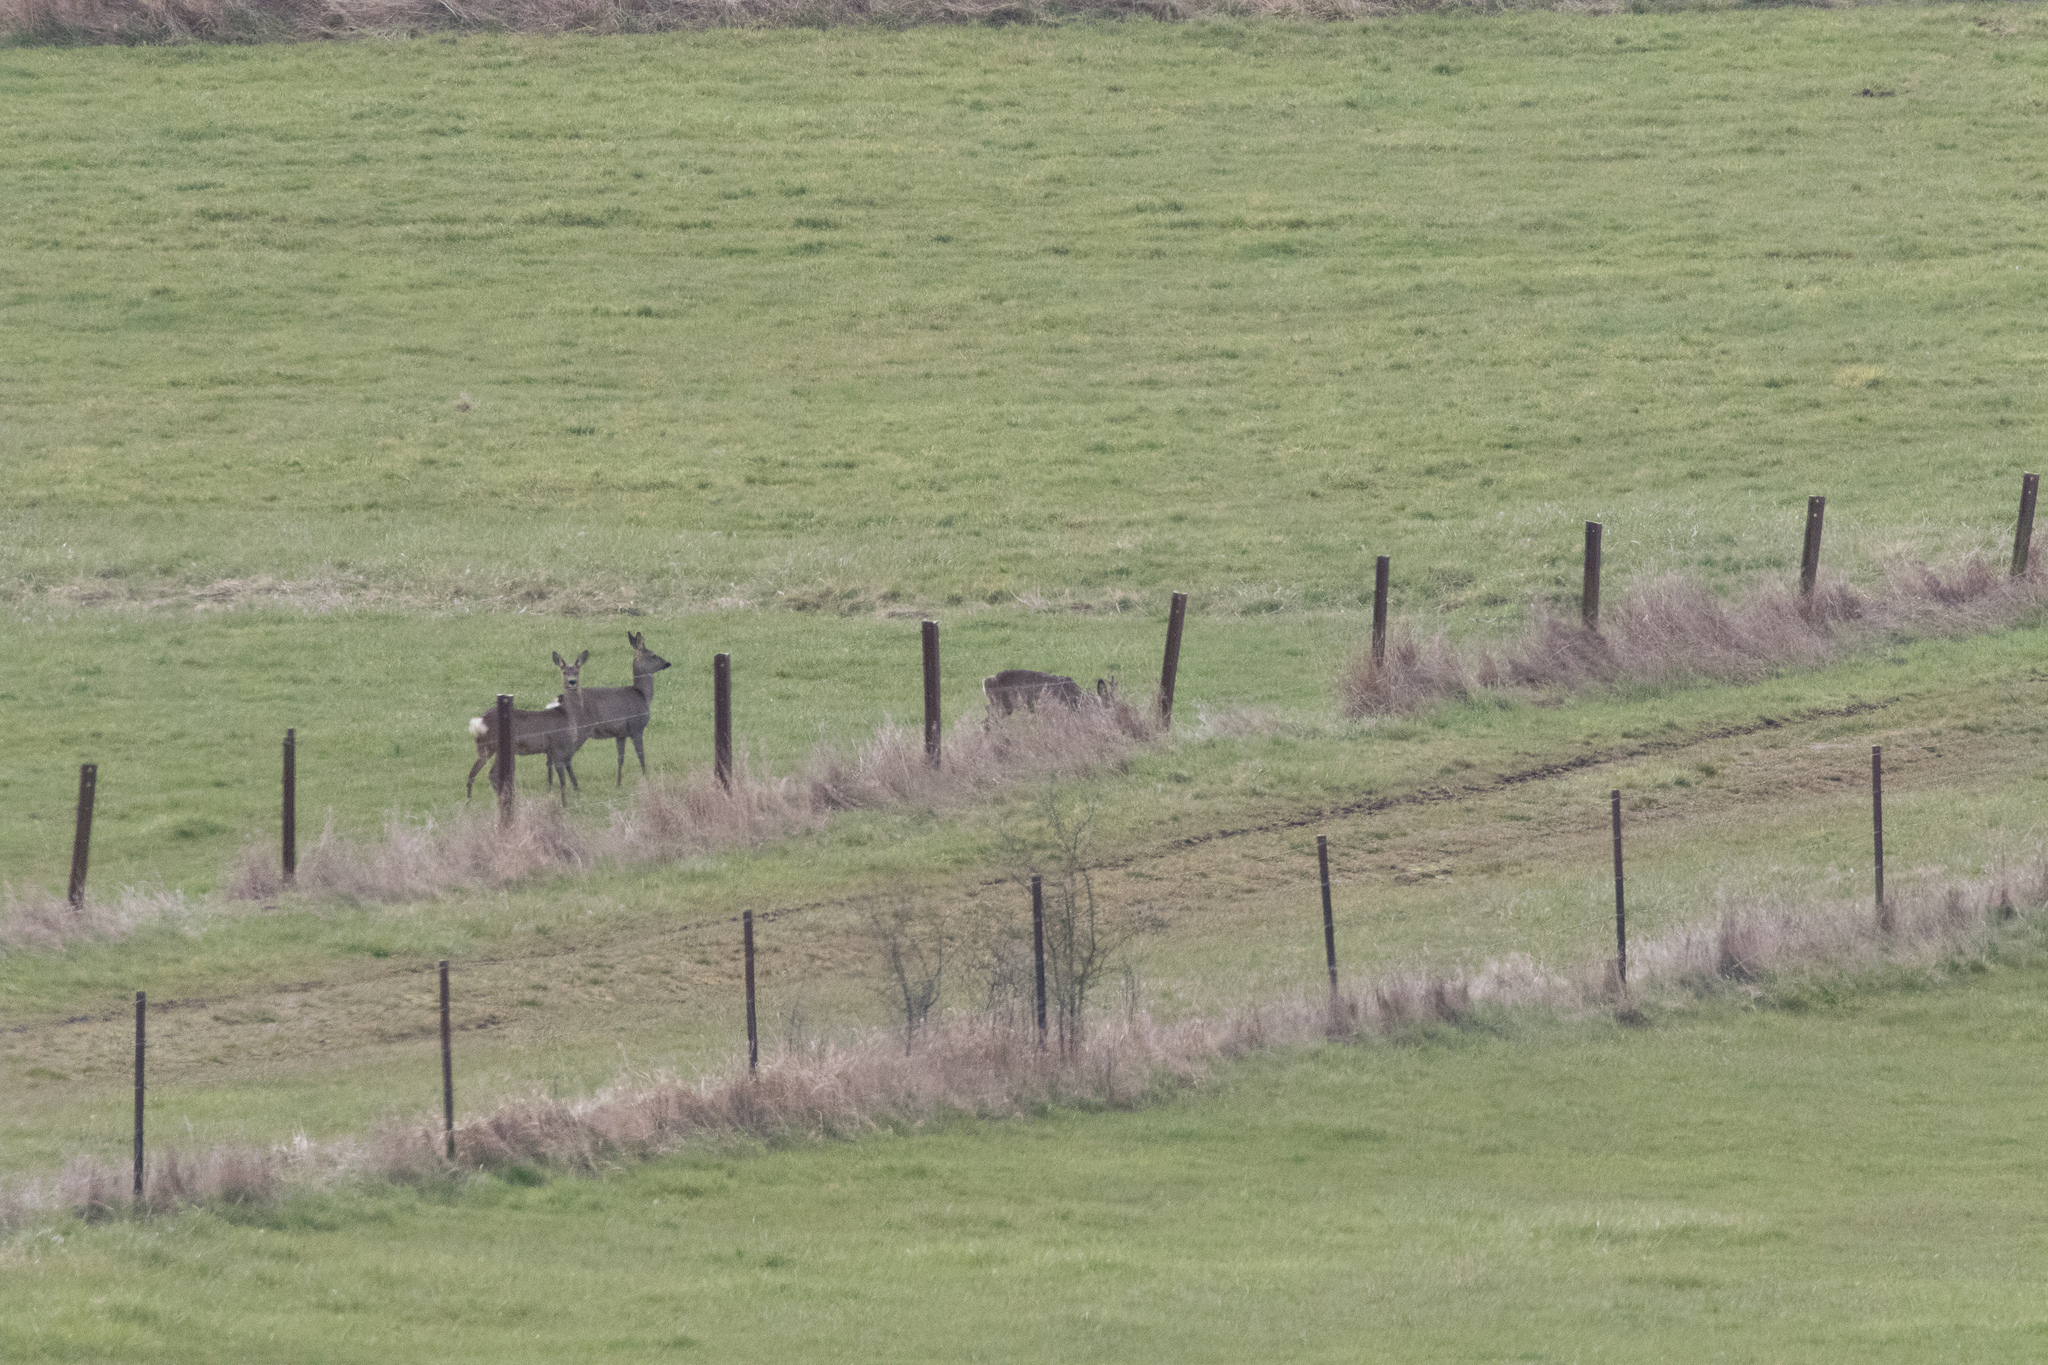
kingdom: Animalia
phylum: Chordata
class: Mammalia
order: Artiodactyla
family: Cervidae
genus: Capreolus
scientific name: Capreolus capreolus
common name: Western roe deer
